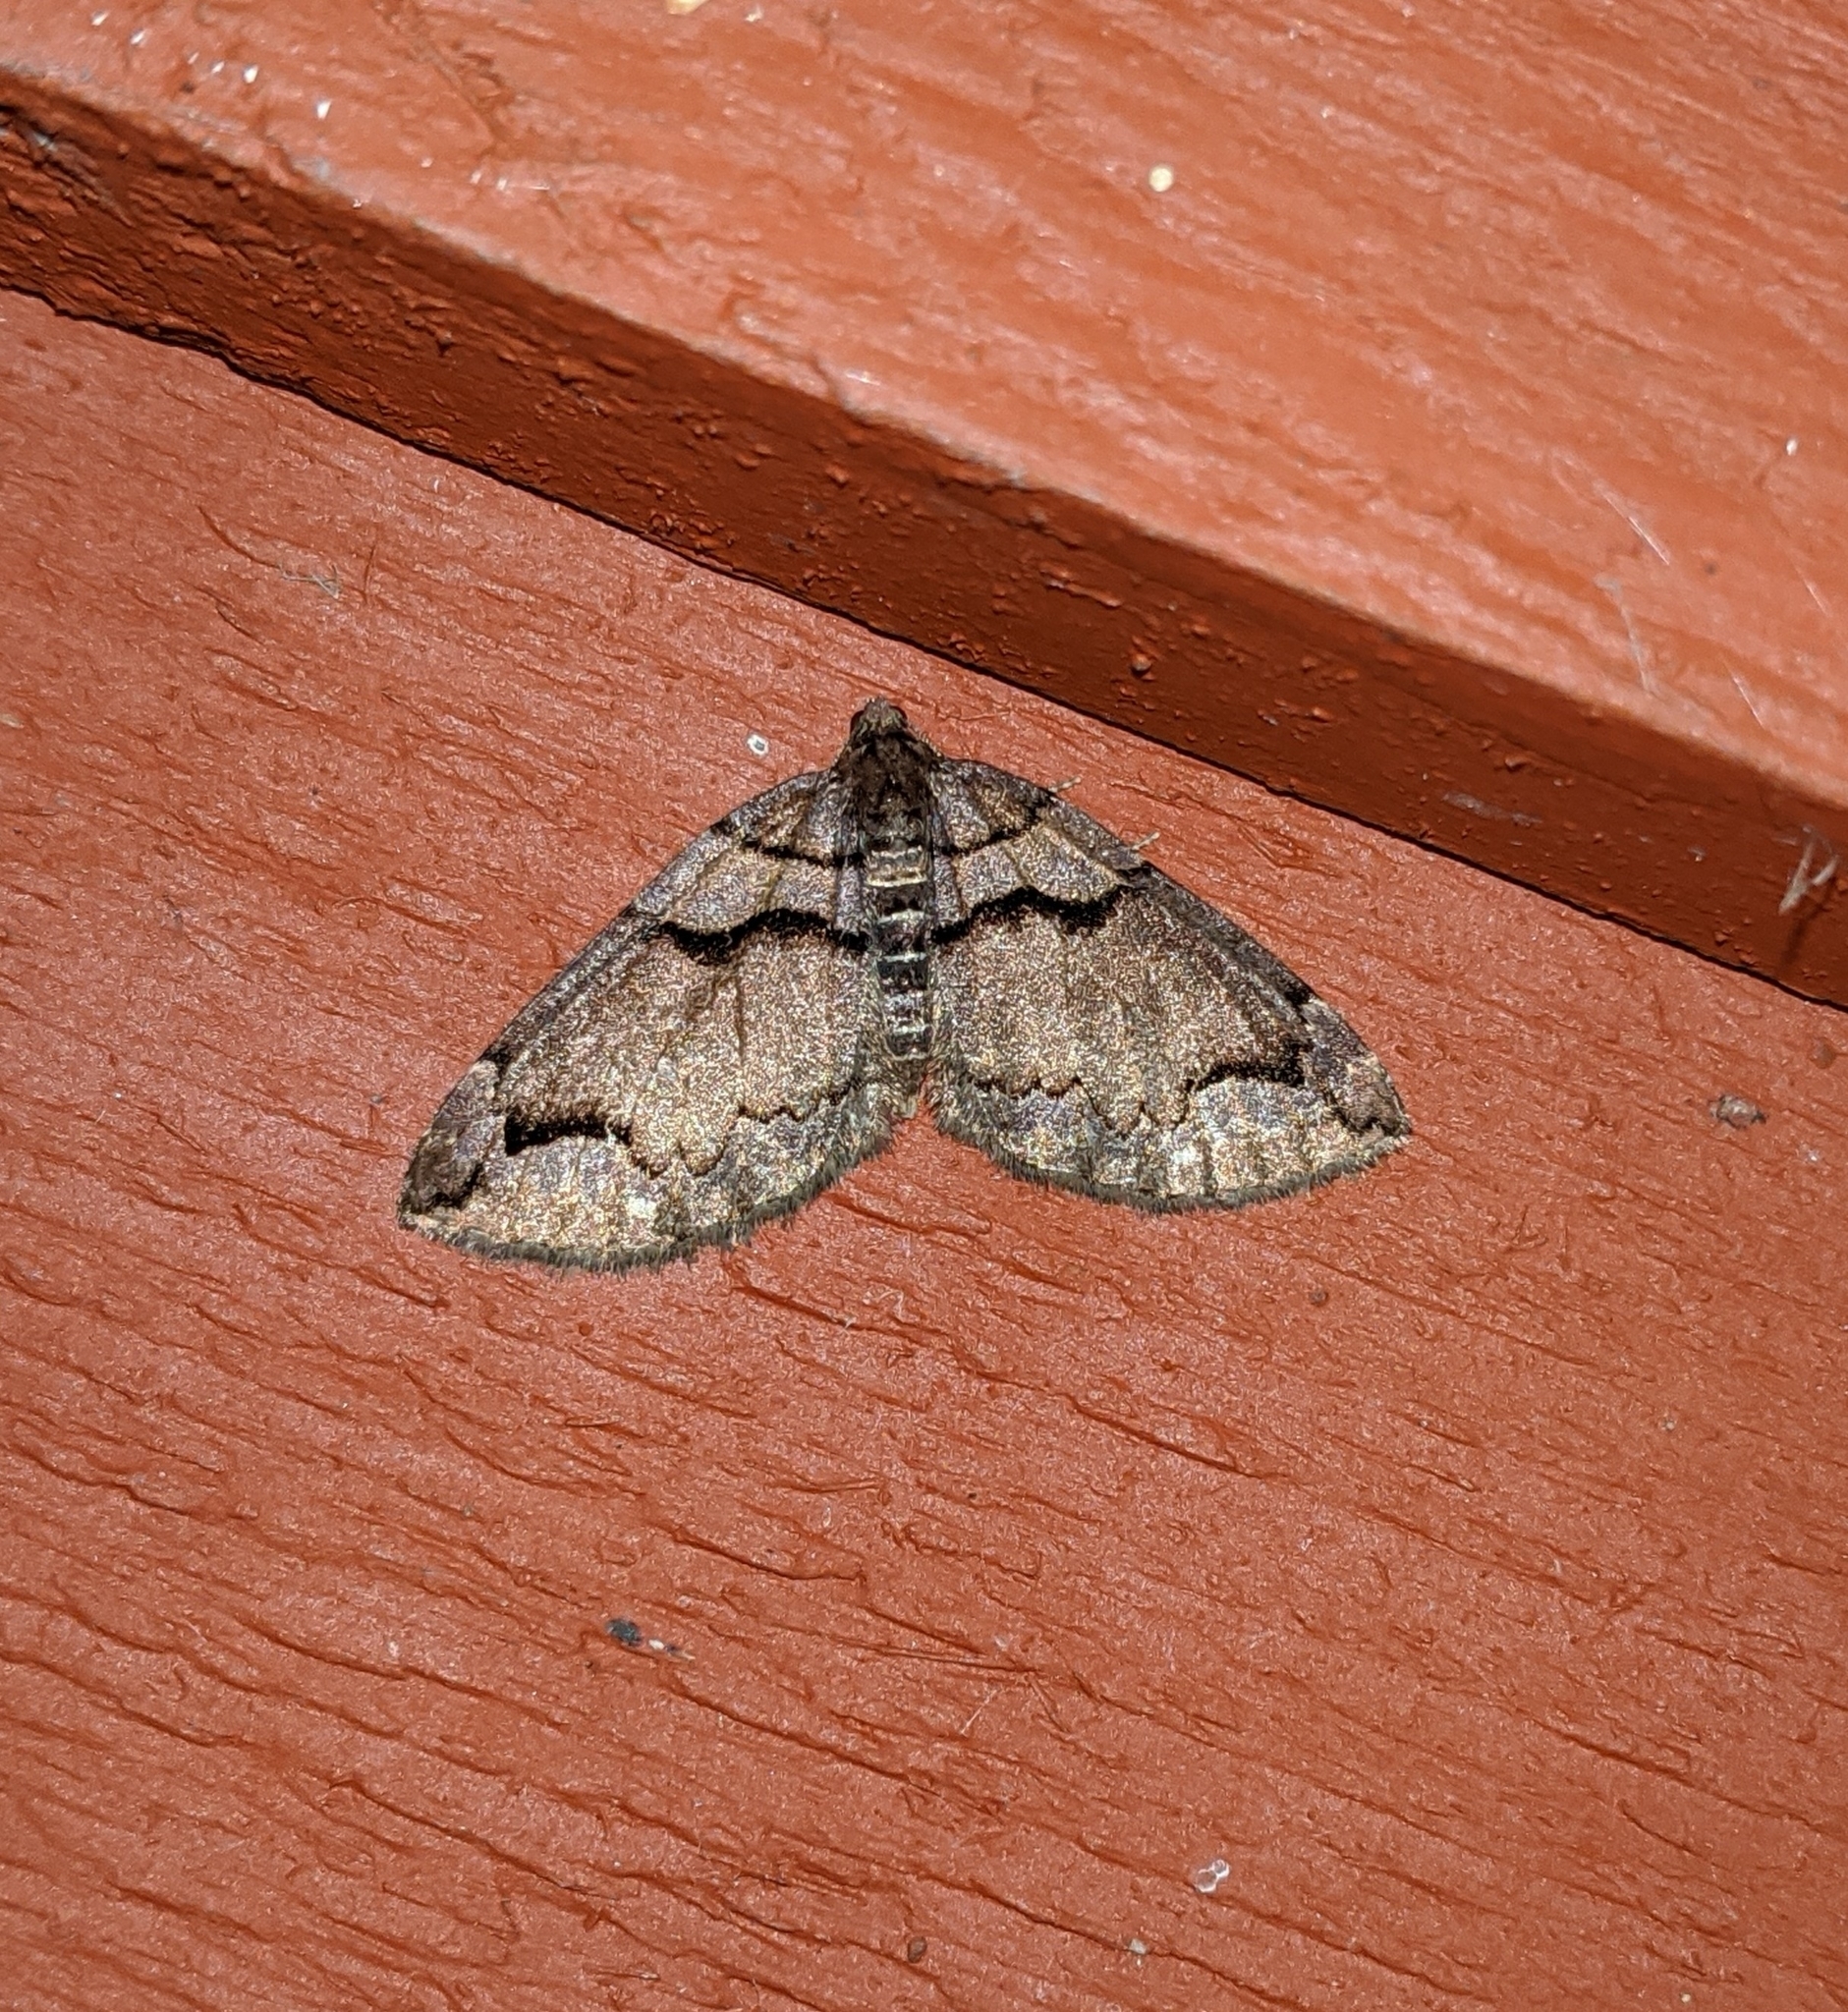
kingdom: Animalia
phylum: Arthropoda
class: Insecta
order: Lepidoptera
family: Geometridae
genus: Anticlea
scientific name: Anticlea vasiliata
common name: Variable carpet
